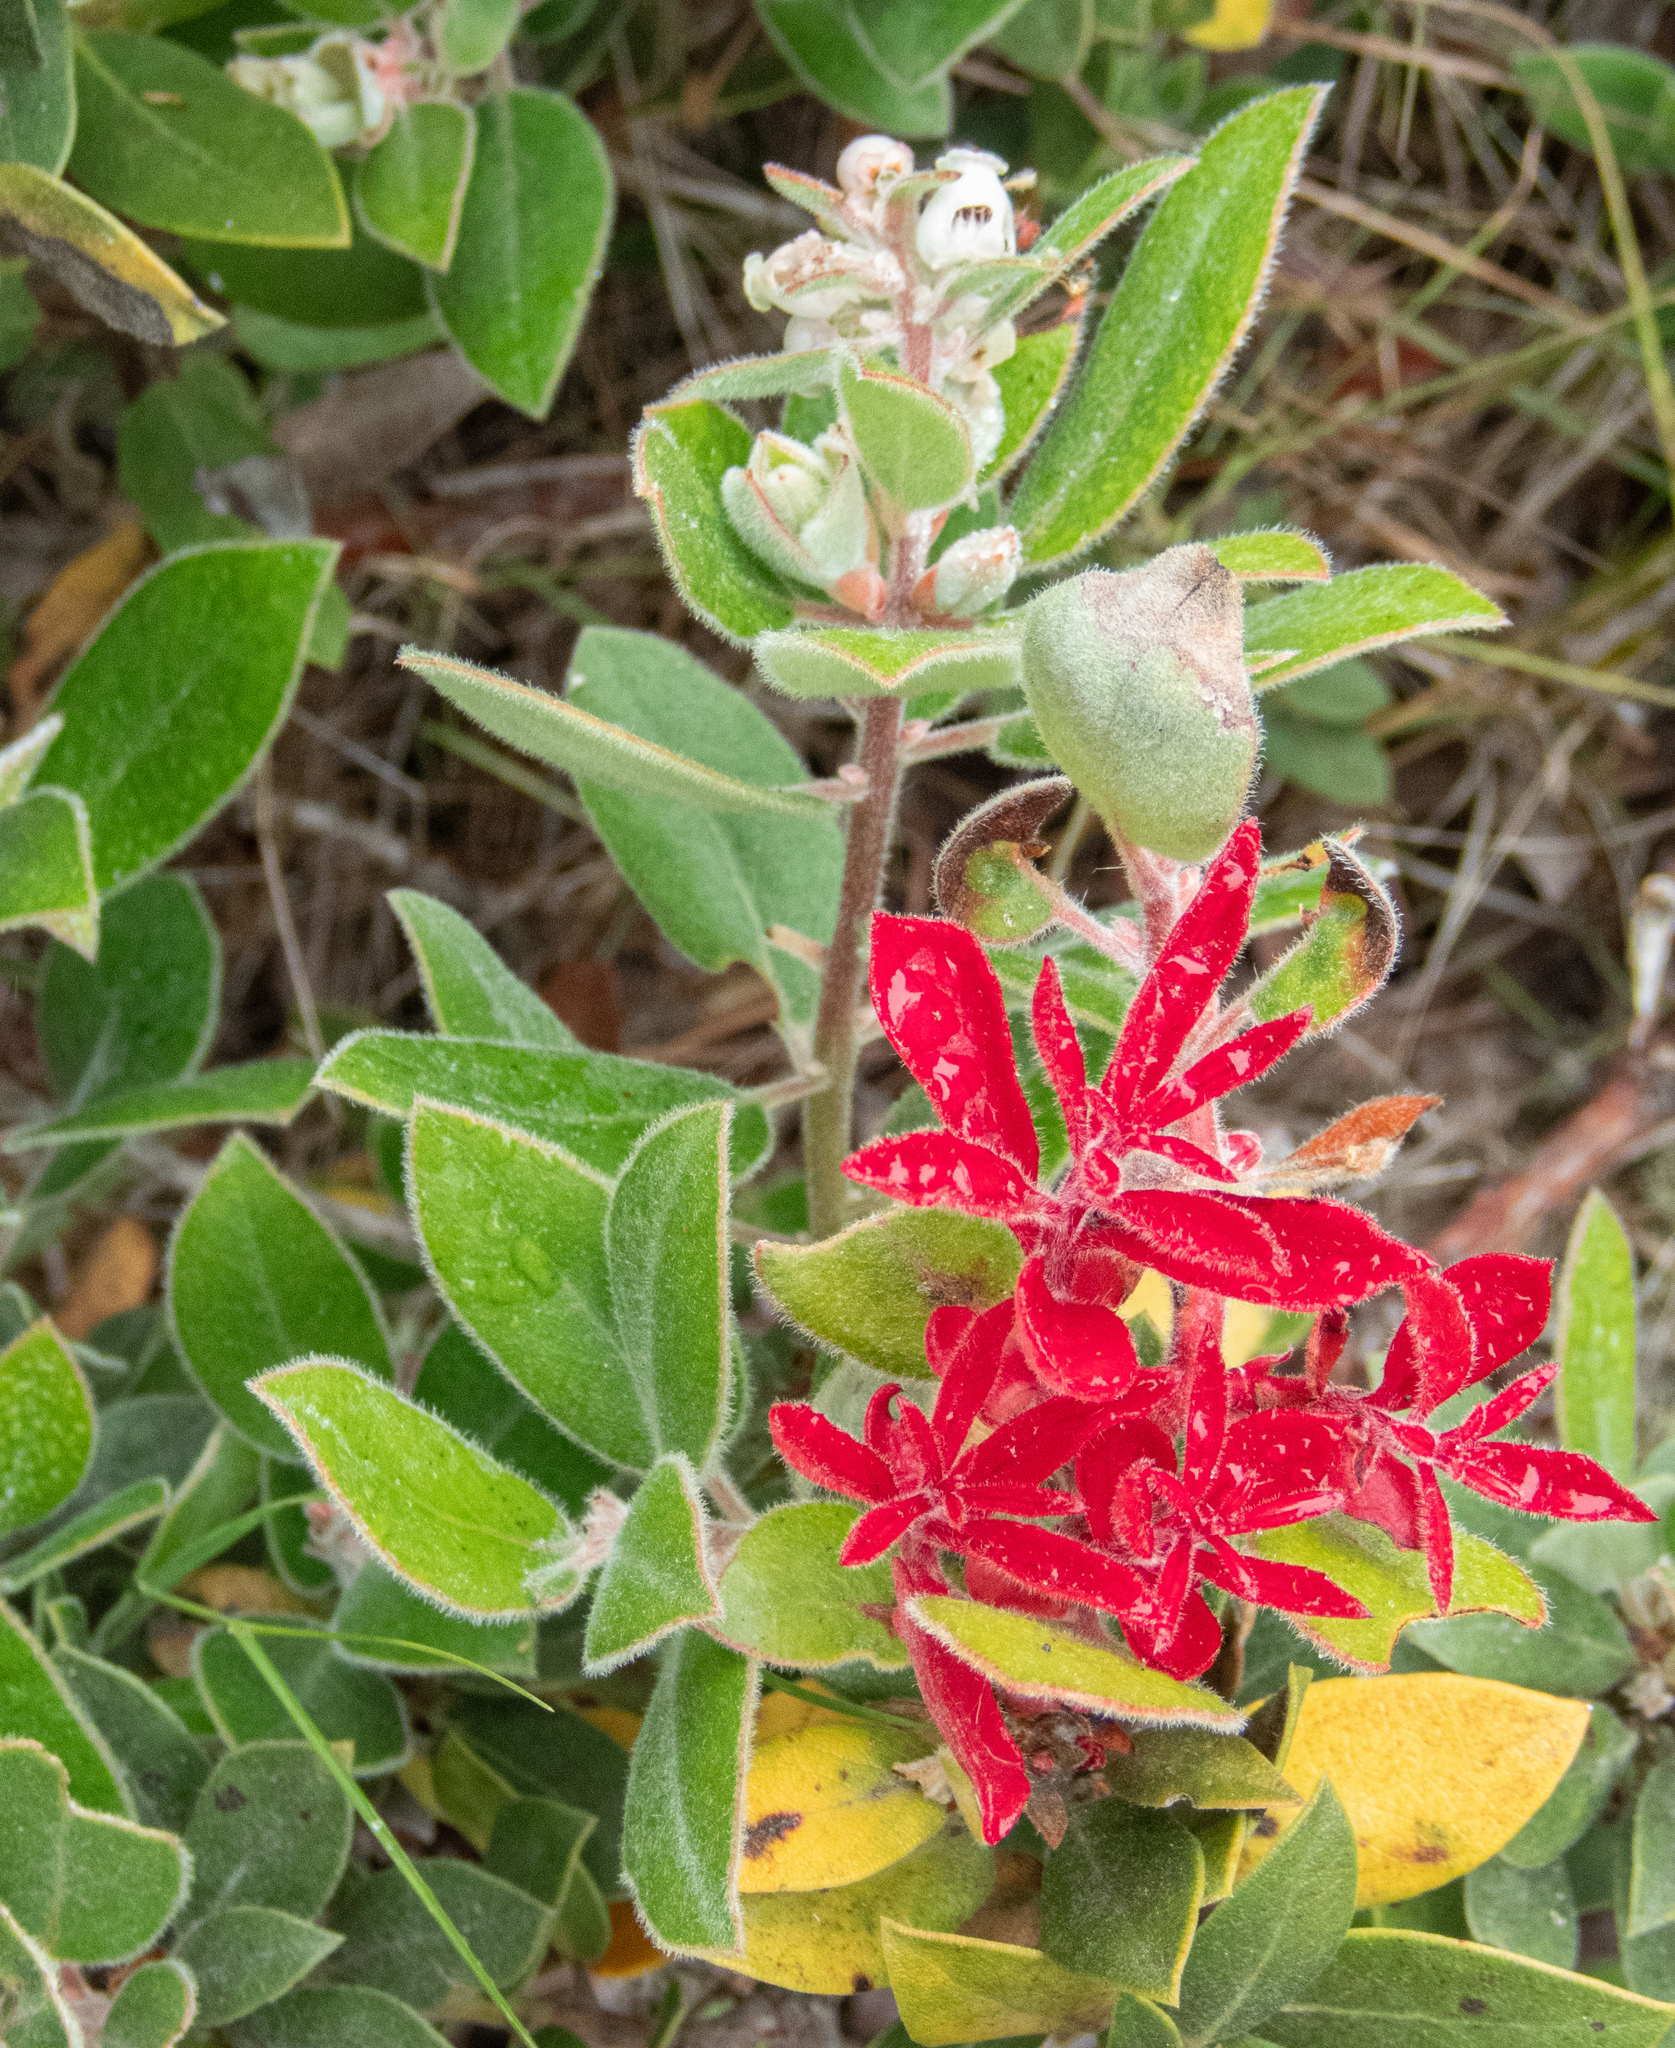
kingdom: Plantae
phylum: Tracheophyta
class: Magnoliopsida
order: Ericales
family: Ericaceae
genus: Arctostaphylos
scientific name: Arctostaphylos tomentosa
